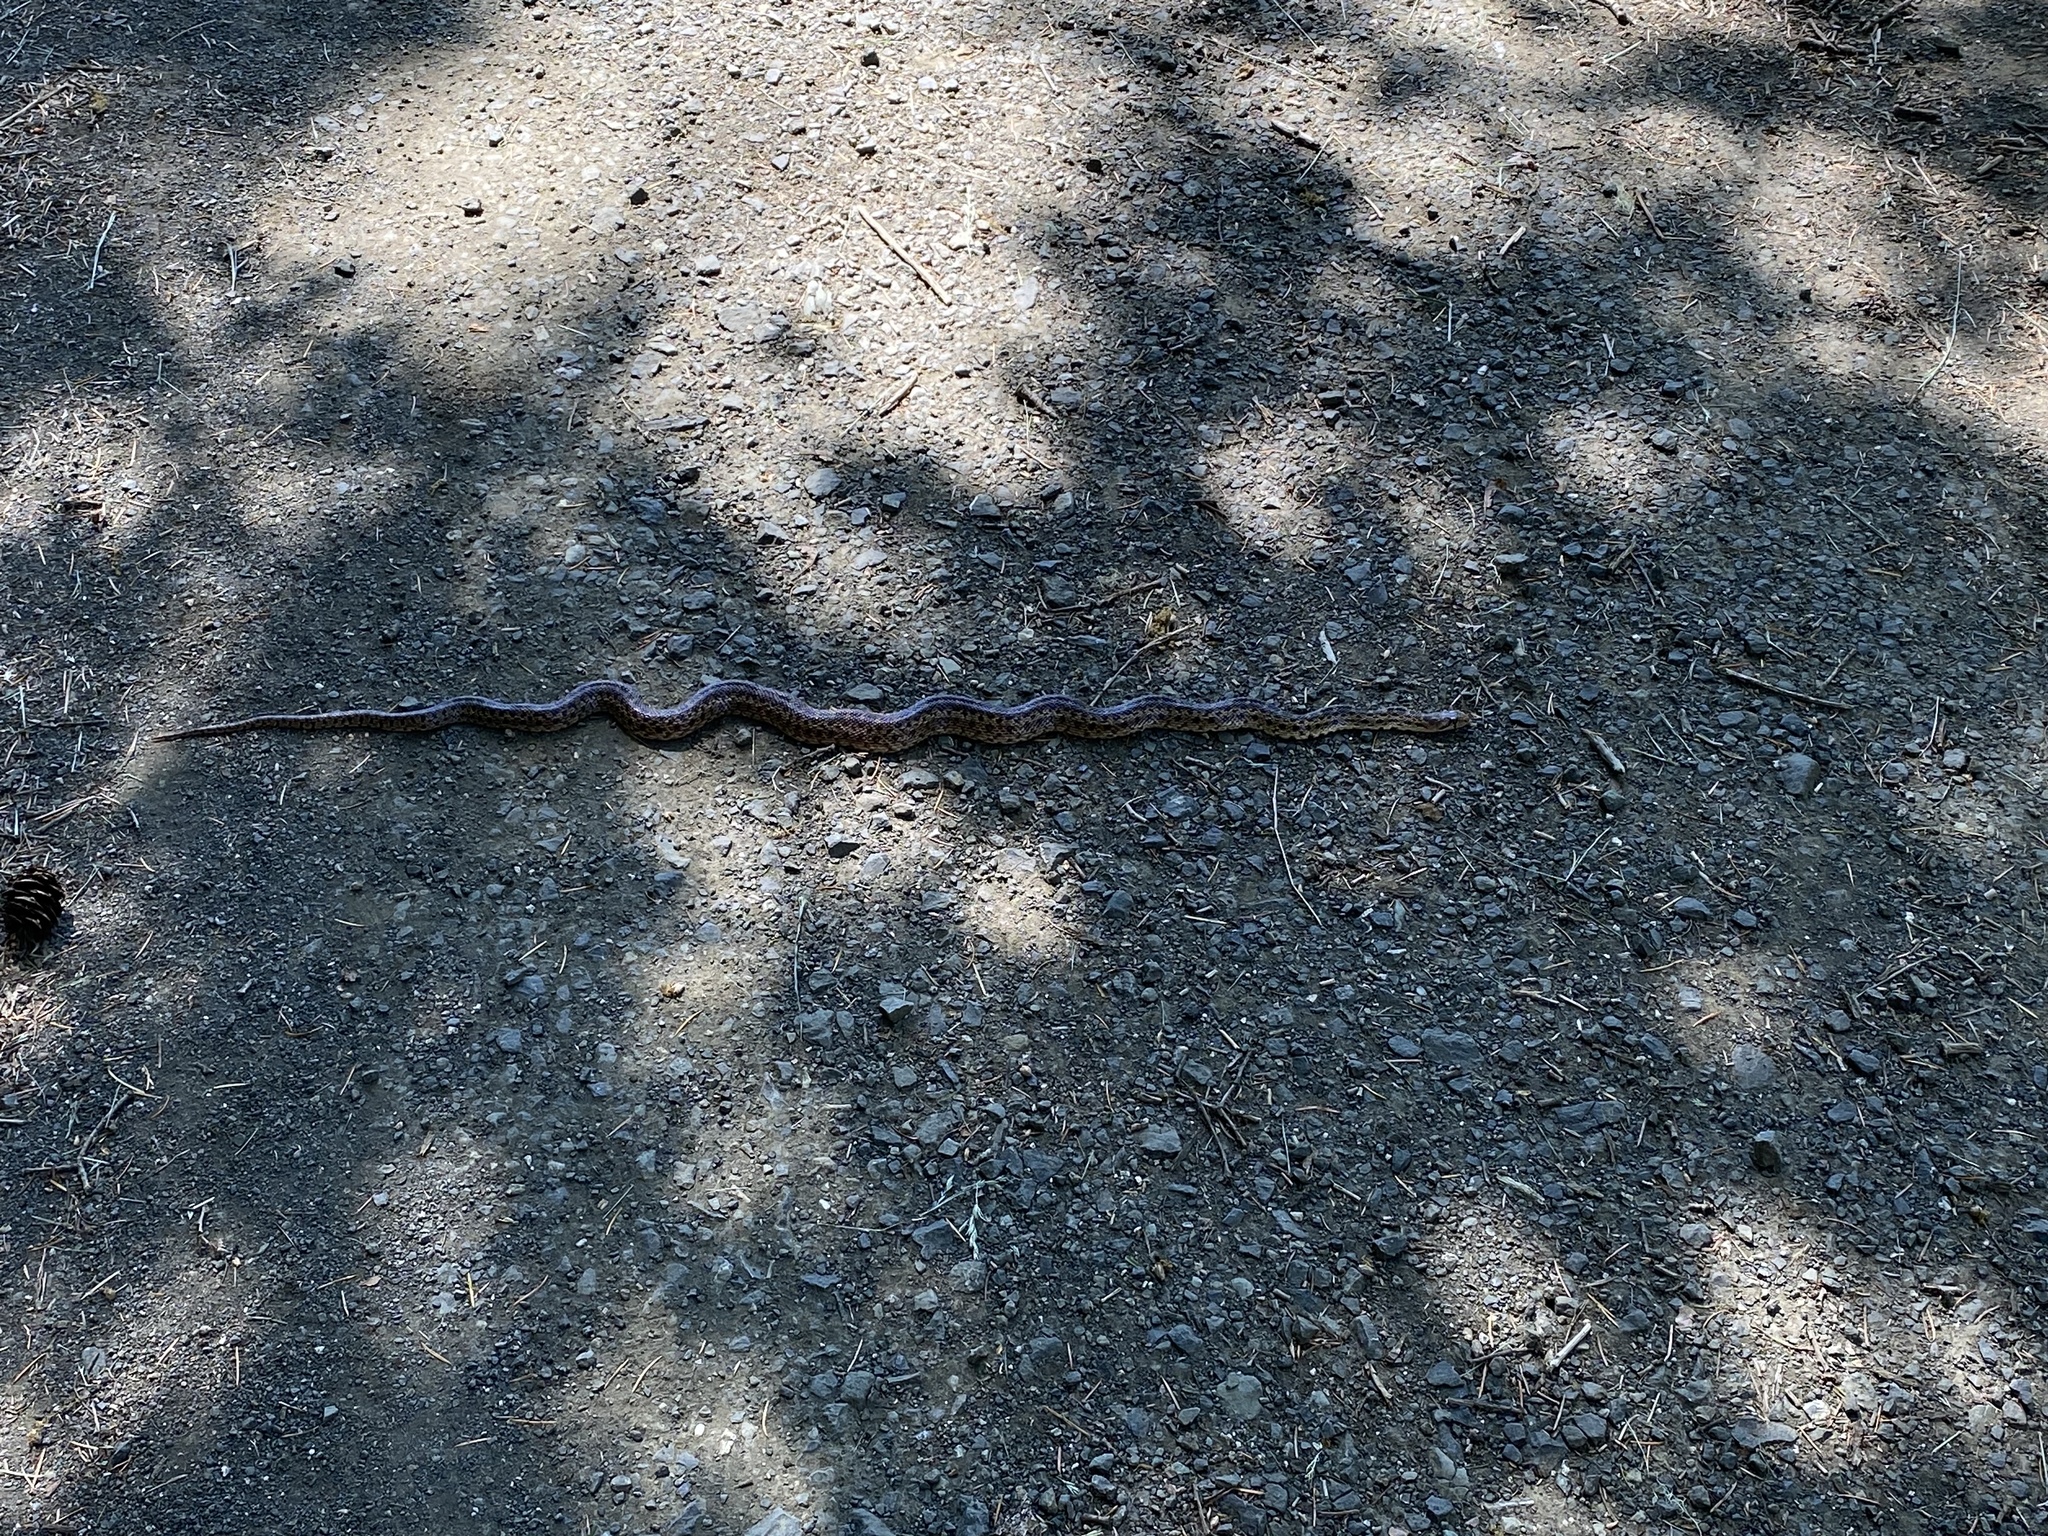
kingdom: Animalia
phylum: Chordata
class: Squamata
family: Colubridae
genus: Pituophis
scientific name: Pituophis catenifer
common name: Gopher snake
